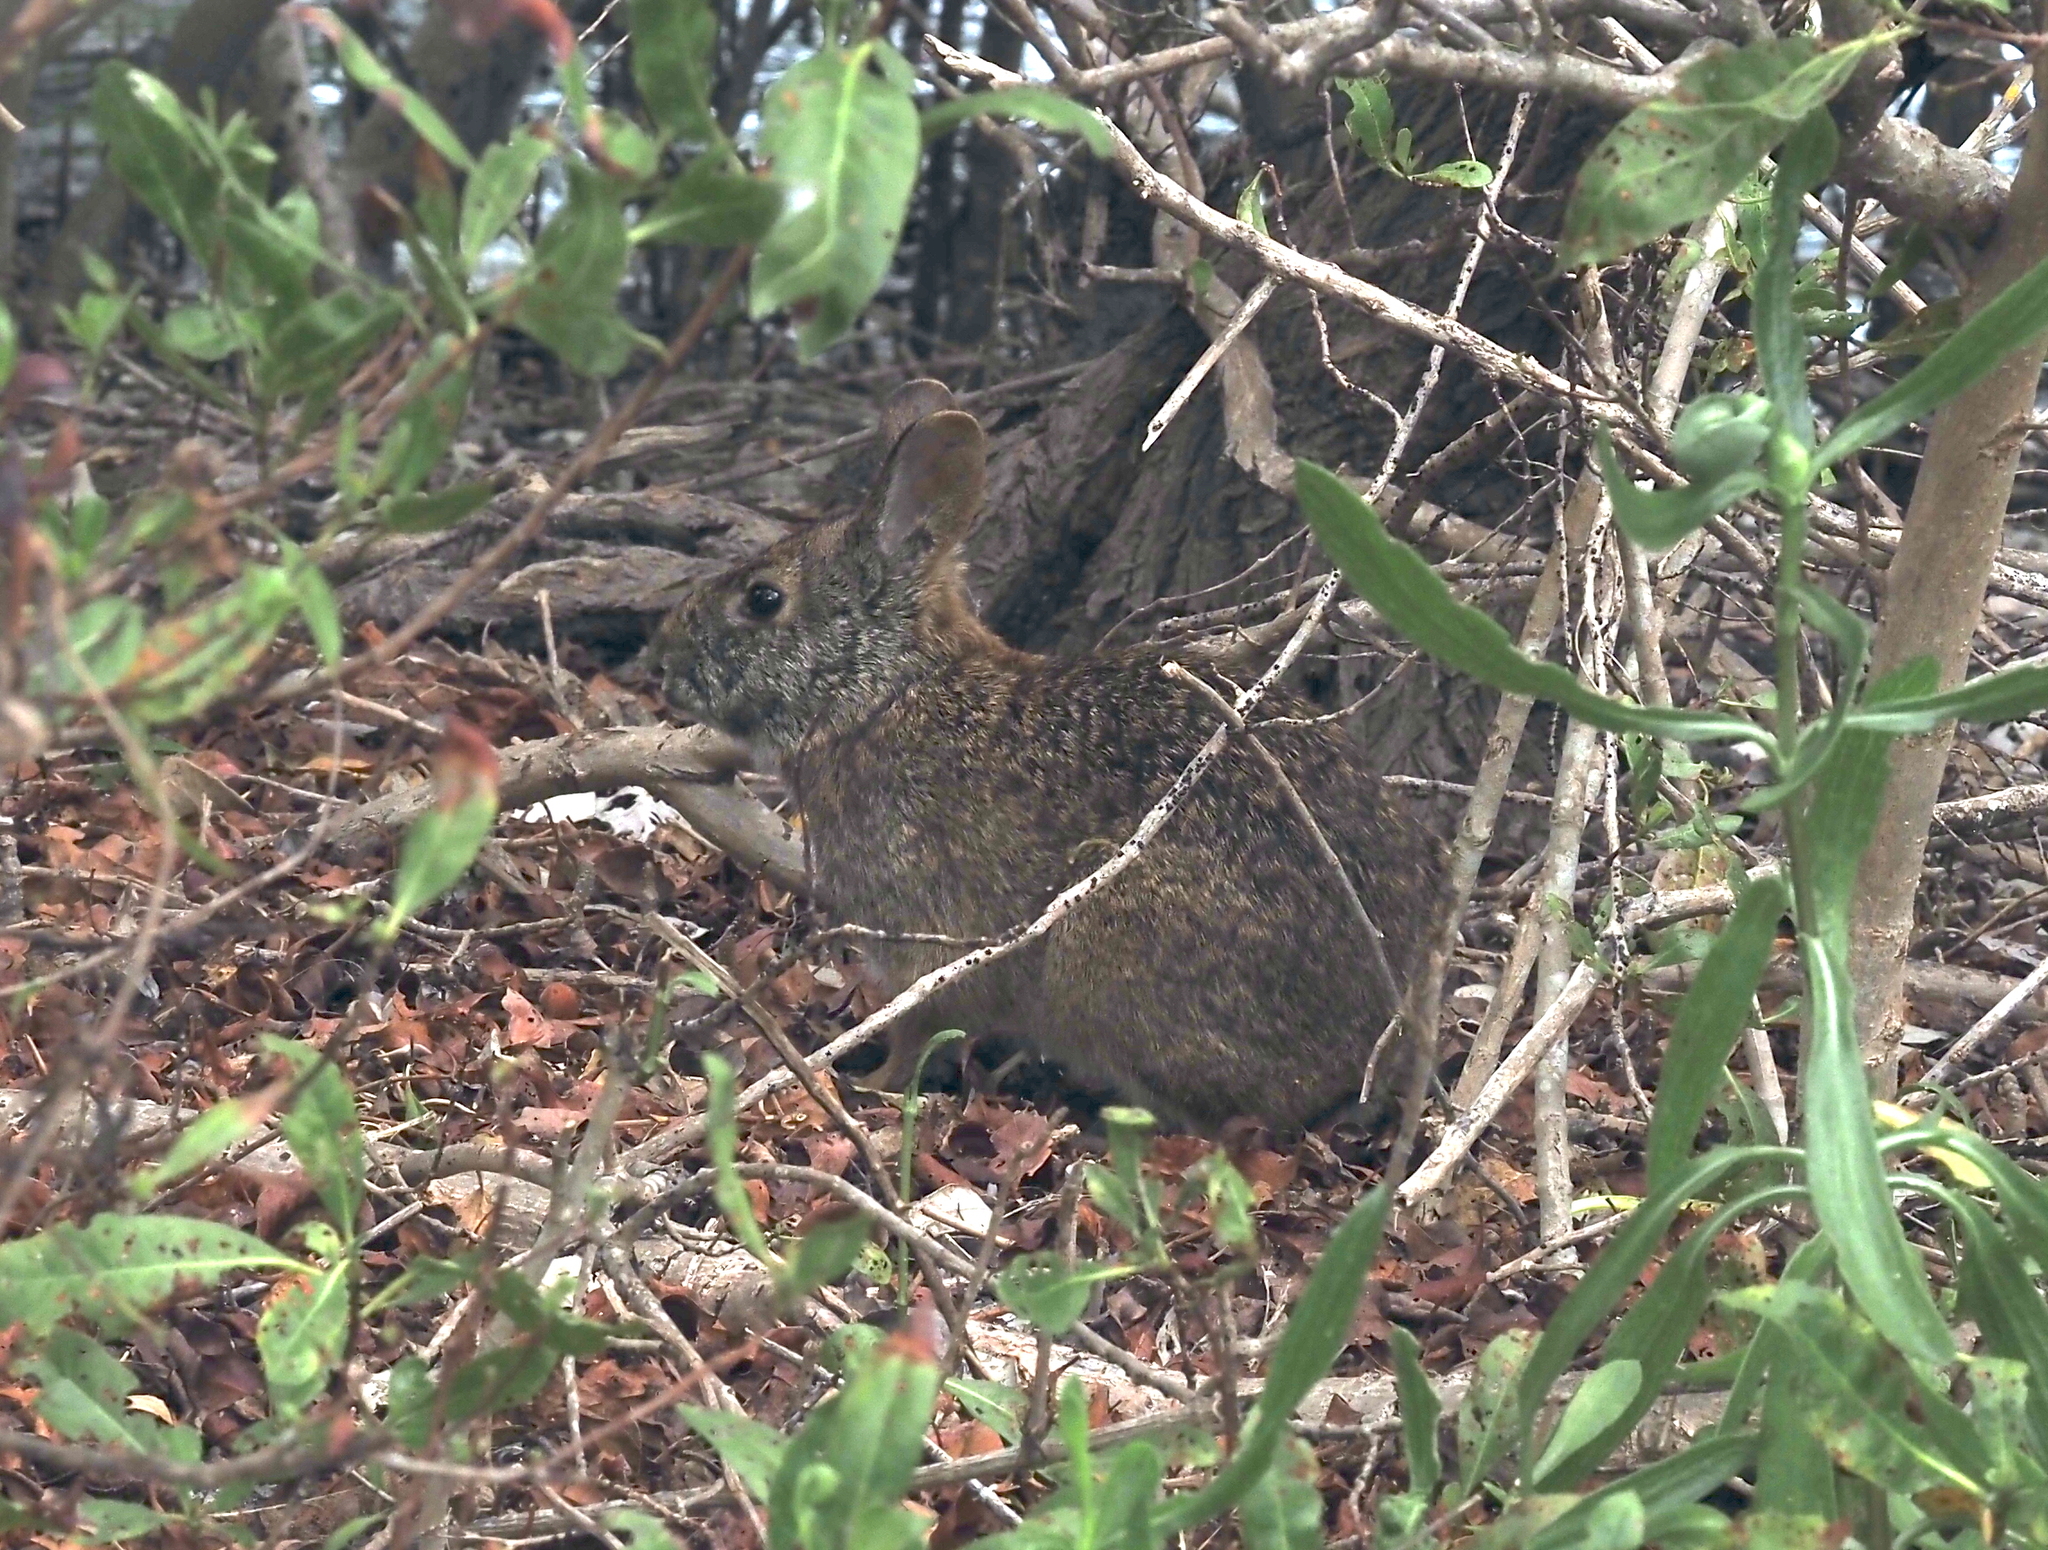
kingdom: Animalia
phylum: Chordata
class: Mammalia
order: Lagomorpha
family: Leporidae
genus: Sylvilagus
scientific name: Sylvilagus palustris
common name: Marsh rabbit
